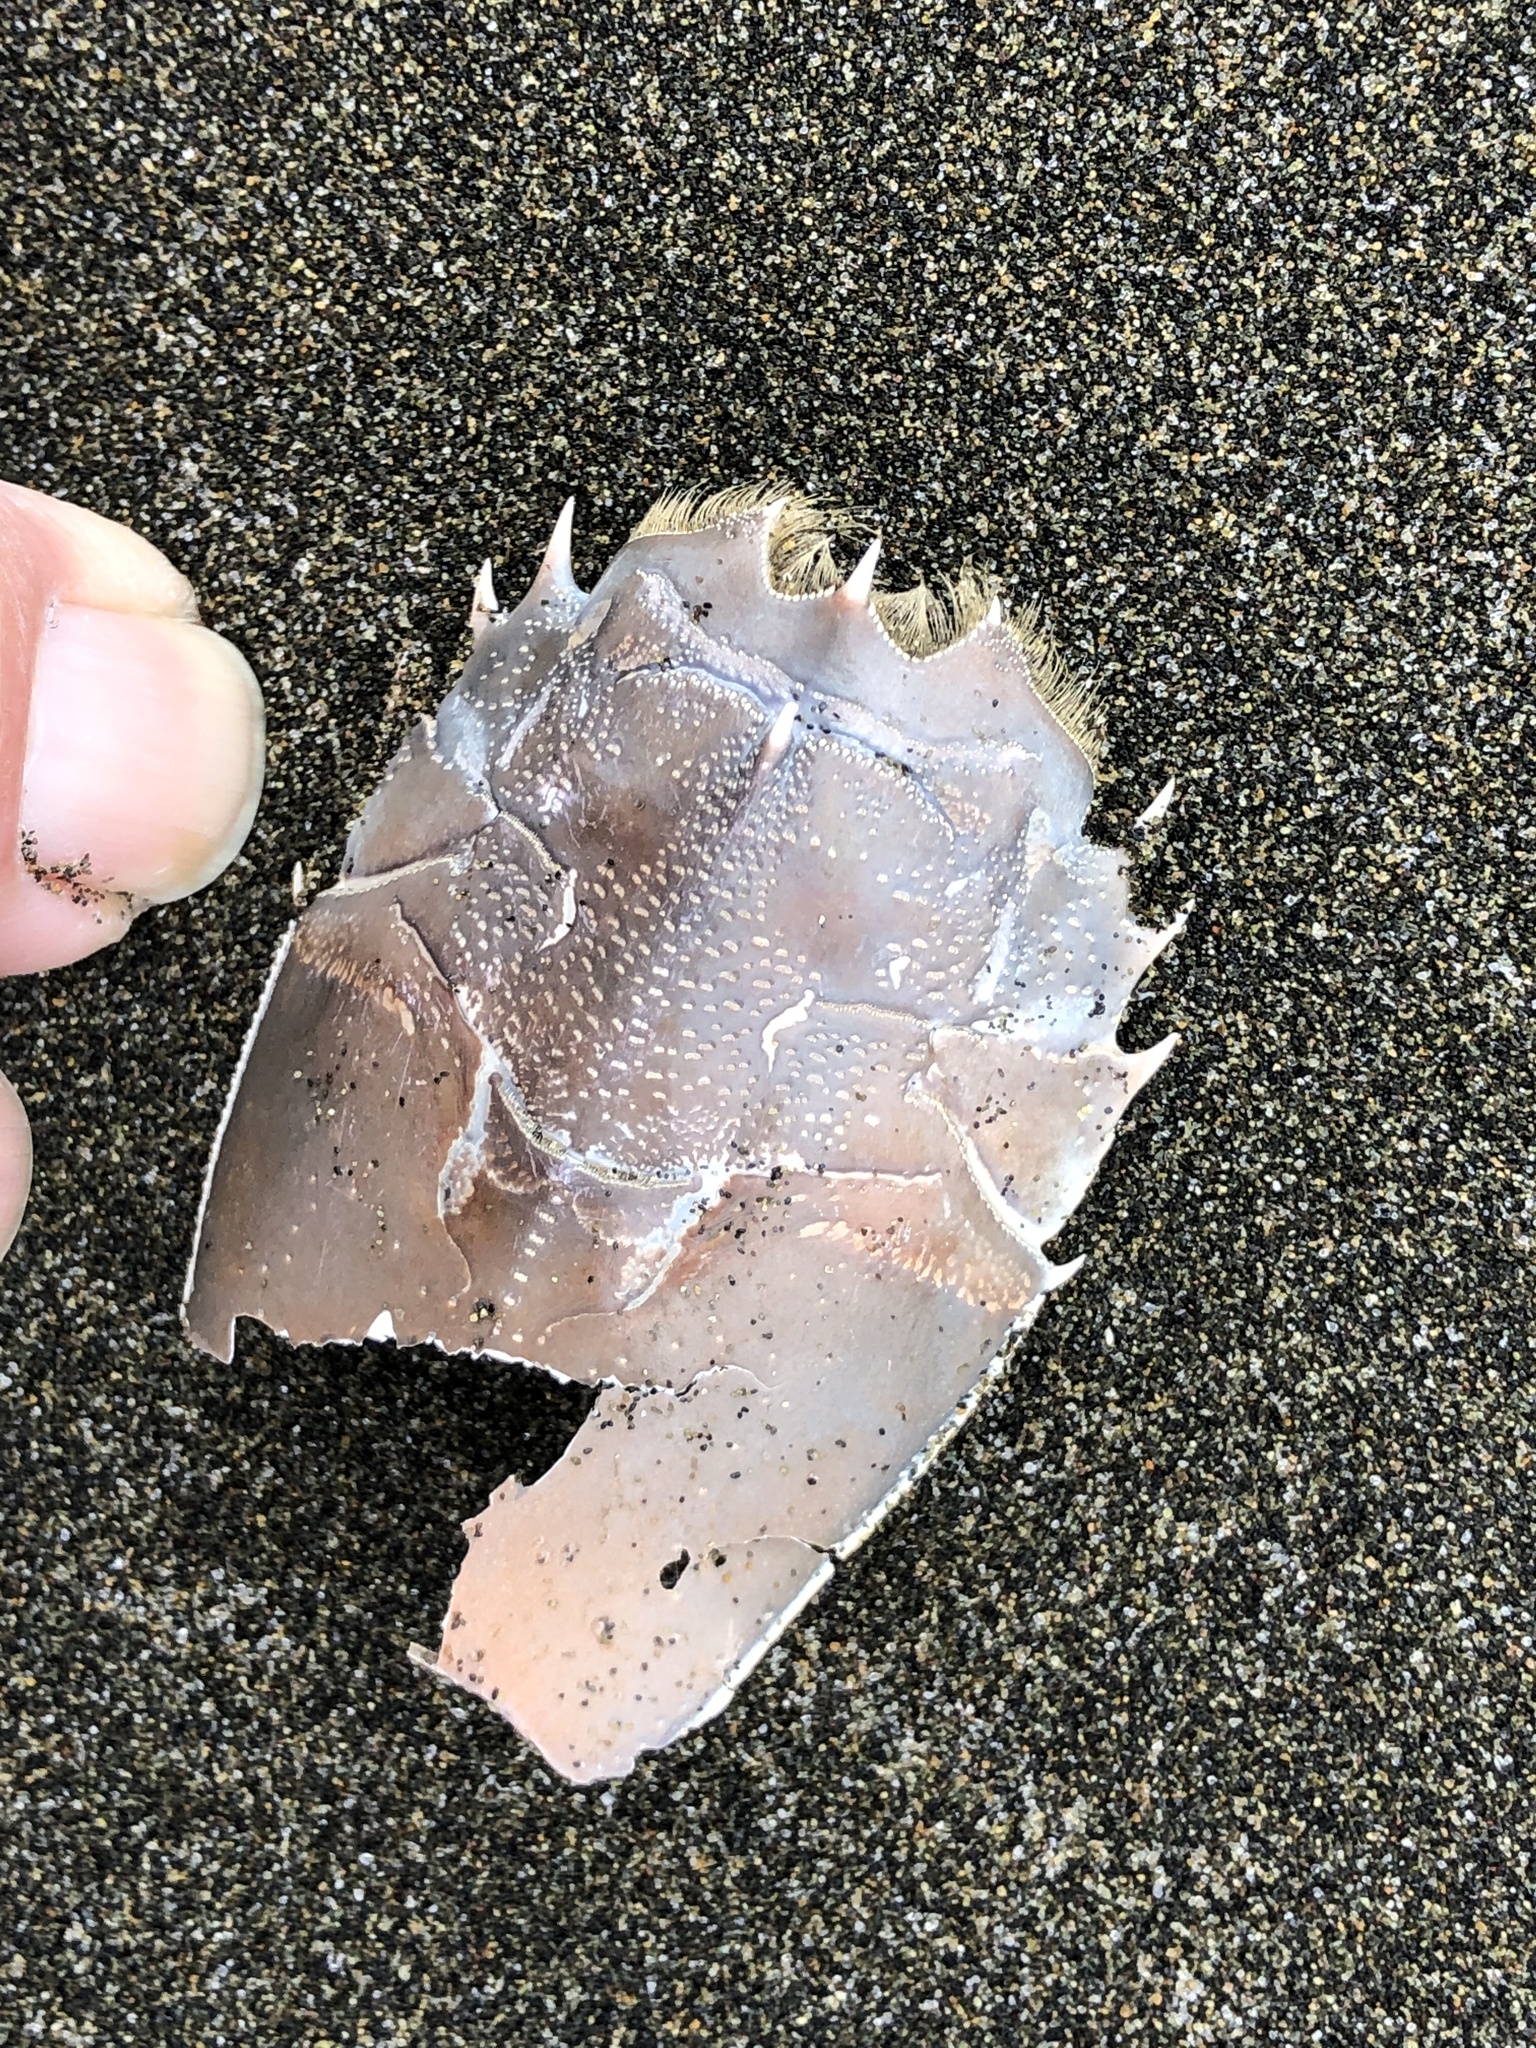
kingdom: Animalia
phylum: Arthropoda
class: Malacostraca
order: Decapoda
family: Blepharipodidae
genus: Blepharipoda
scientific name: Blepharipoda occidentalis
